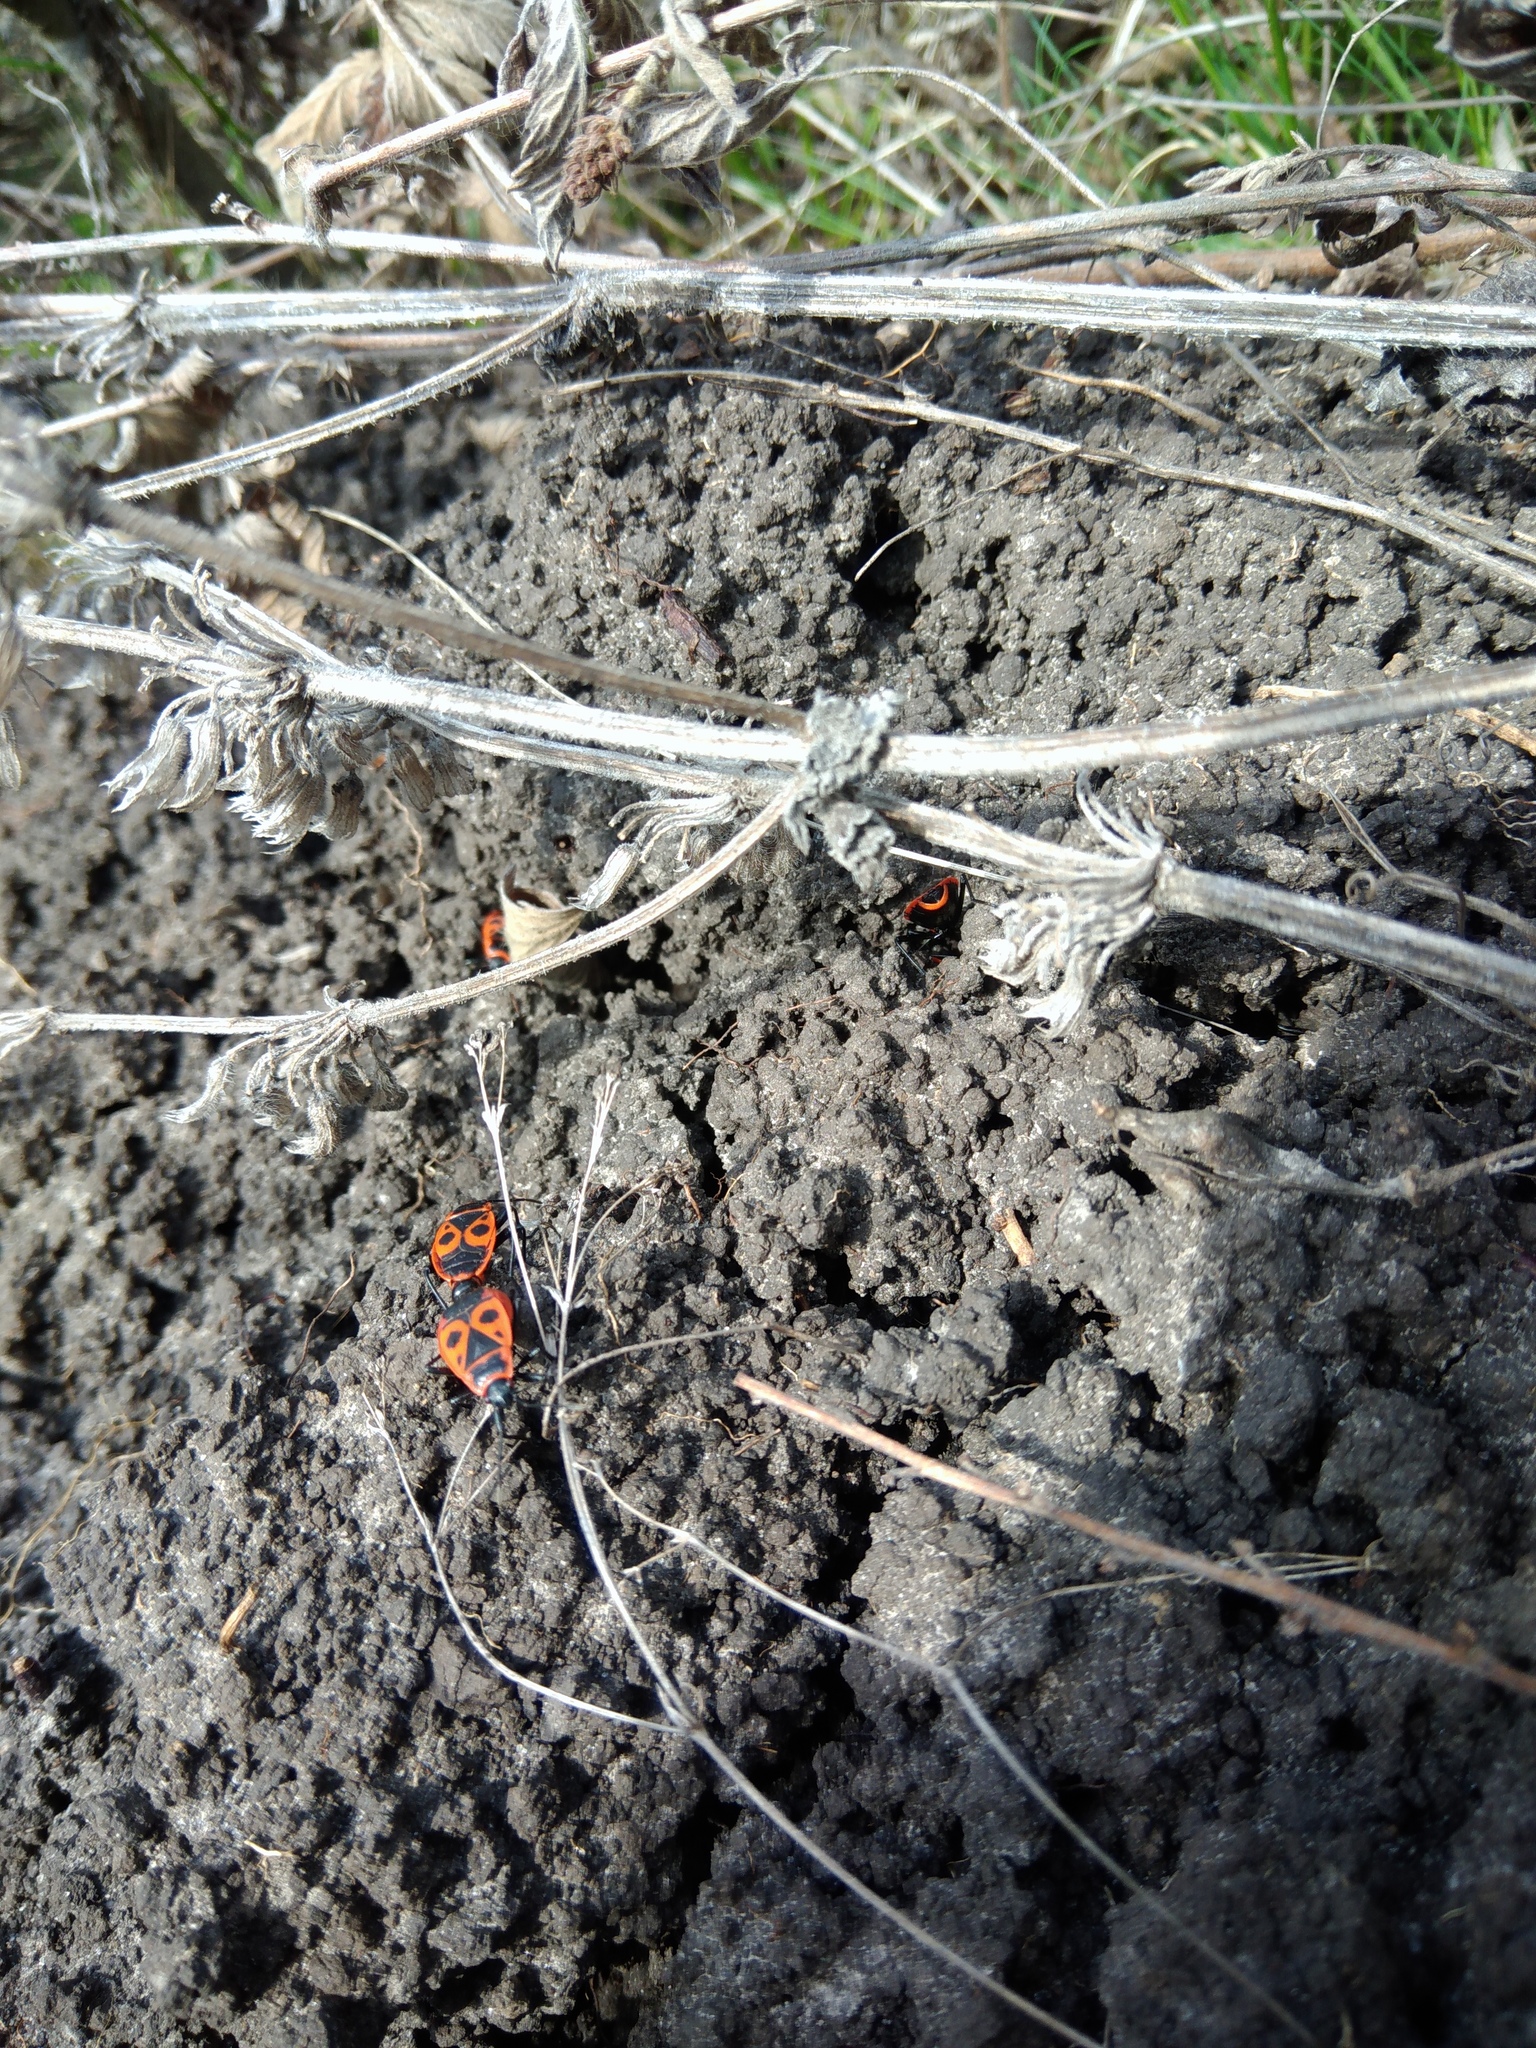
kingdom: Animalia
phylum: Arthropoda
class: Insecta
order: Hemiptera
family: Pyrrhocoridae
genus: Pyrrhocoris
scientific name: Pyrrhocoris apterus
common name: Firebug
